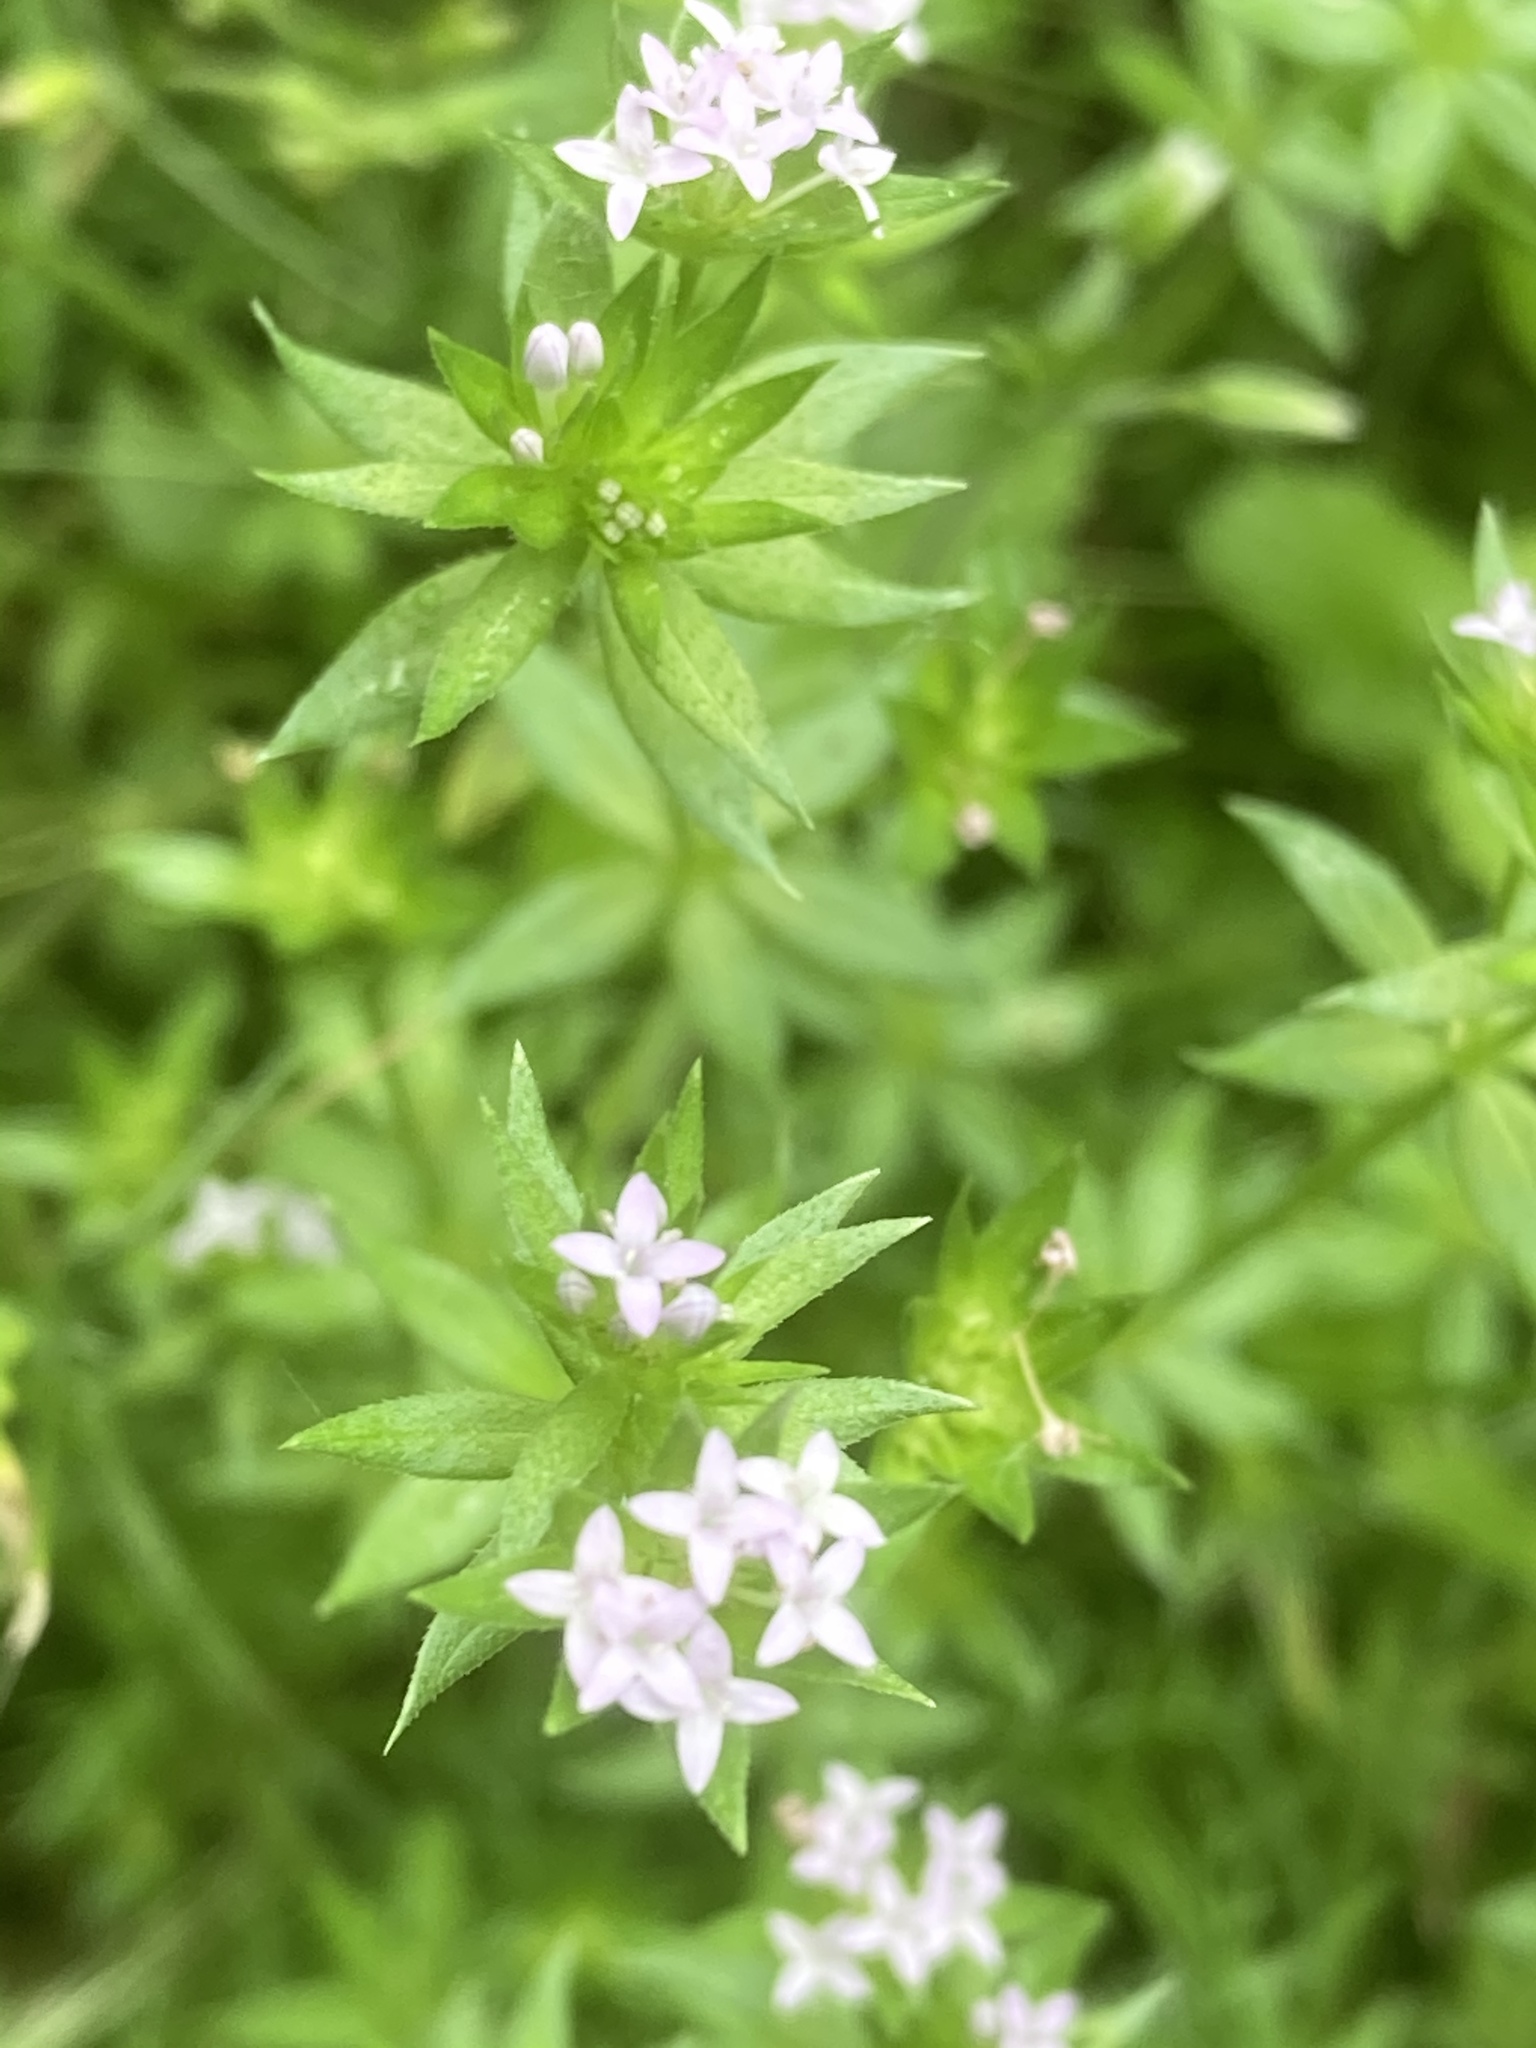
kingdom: Plantae
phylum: Tracheophyta
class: Magnoliopsida
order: Gentianales
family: Rubiaceae
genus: Sherardia
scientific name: Sherardia arvensis
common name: Field madder
